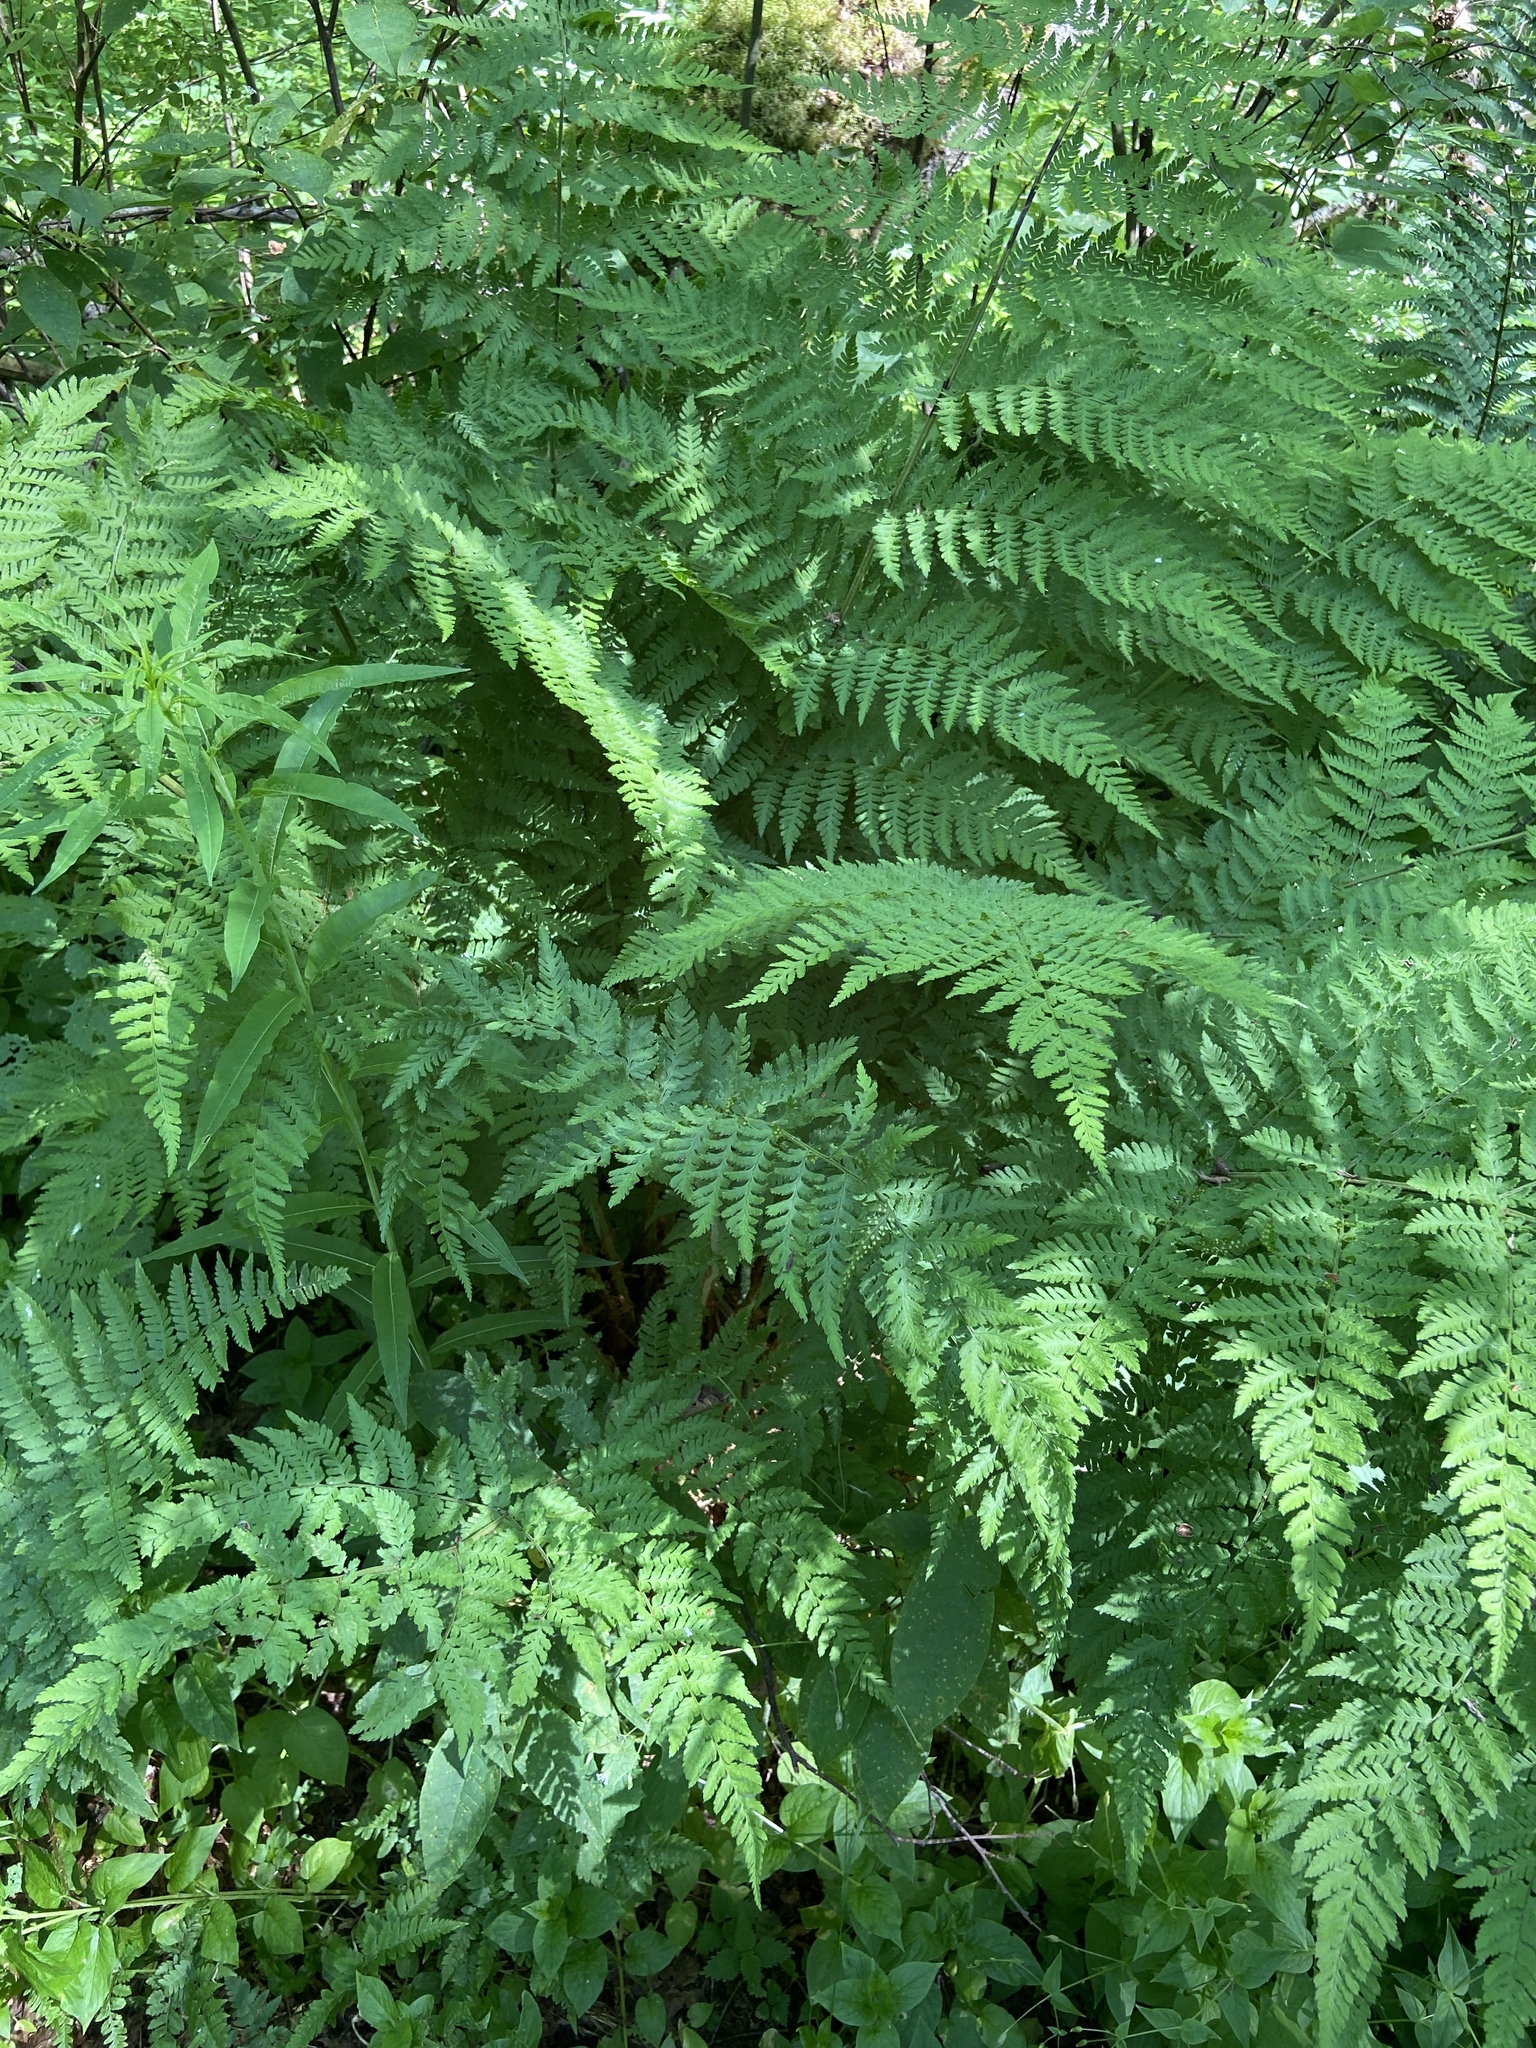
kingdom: Plantae
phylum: Tracheophyta
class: Polypodiopsida
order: Polypodiales
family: Athyriaceae
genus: Athyrium
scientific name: Athyrium filix-femina
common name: Lady fern
